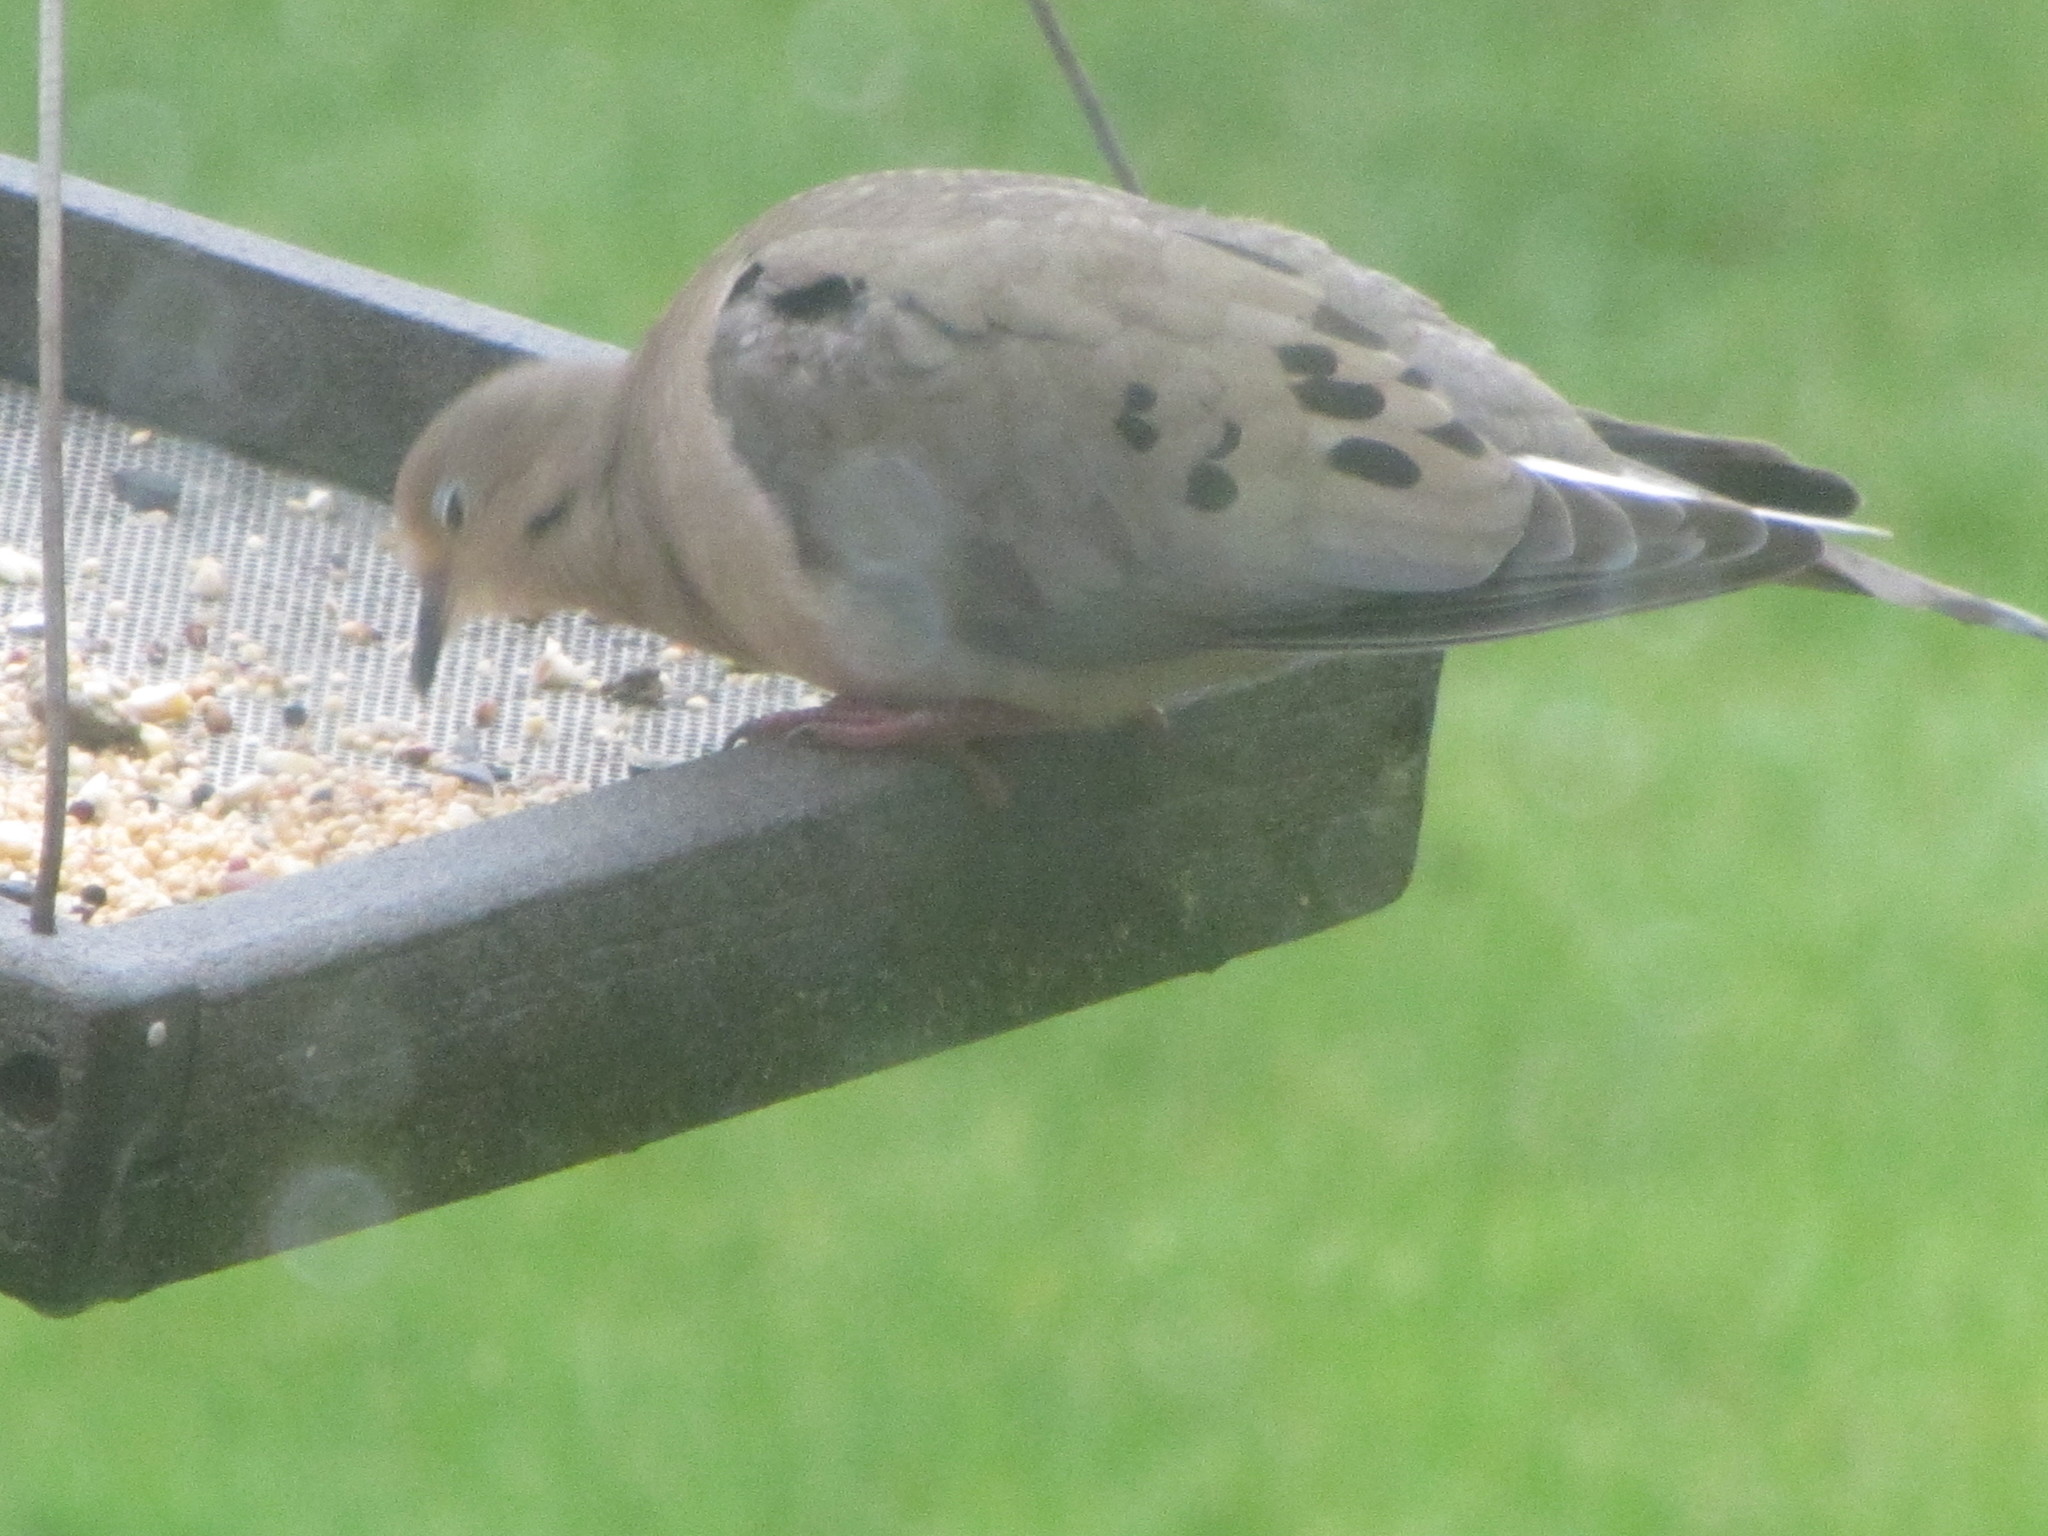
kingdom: Animalia
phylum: Chordata
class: Aves
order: Columbiformes
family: Columbidae
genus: Zenaida
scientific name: Zenaida macroura
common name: Mourning dove
